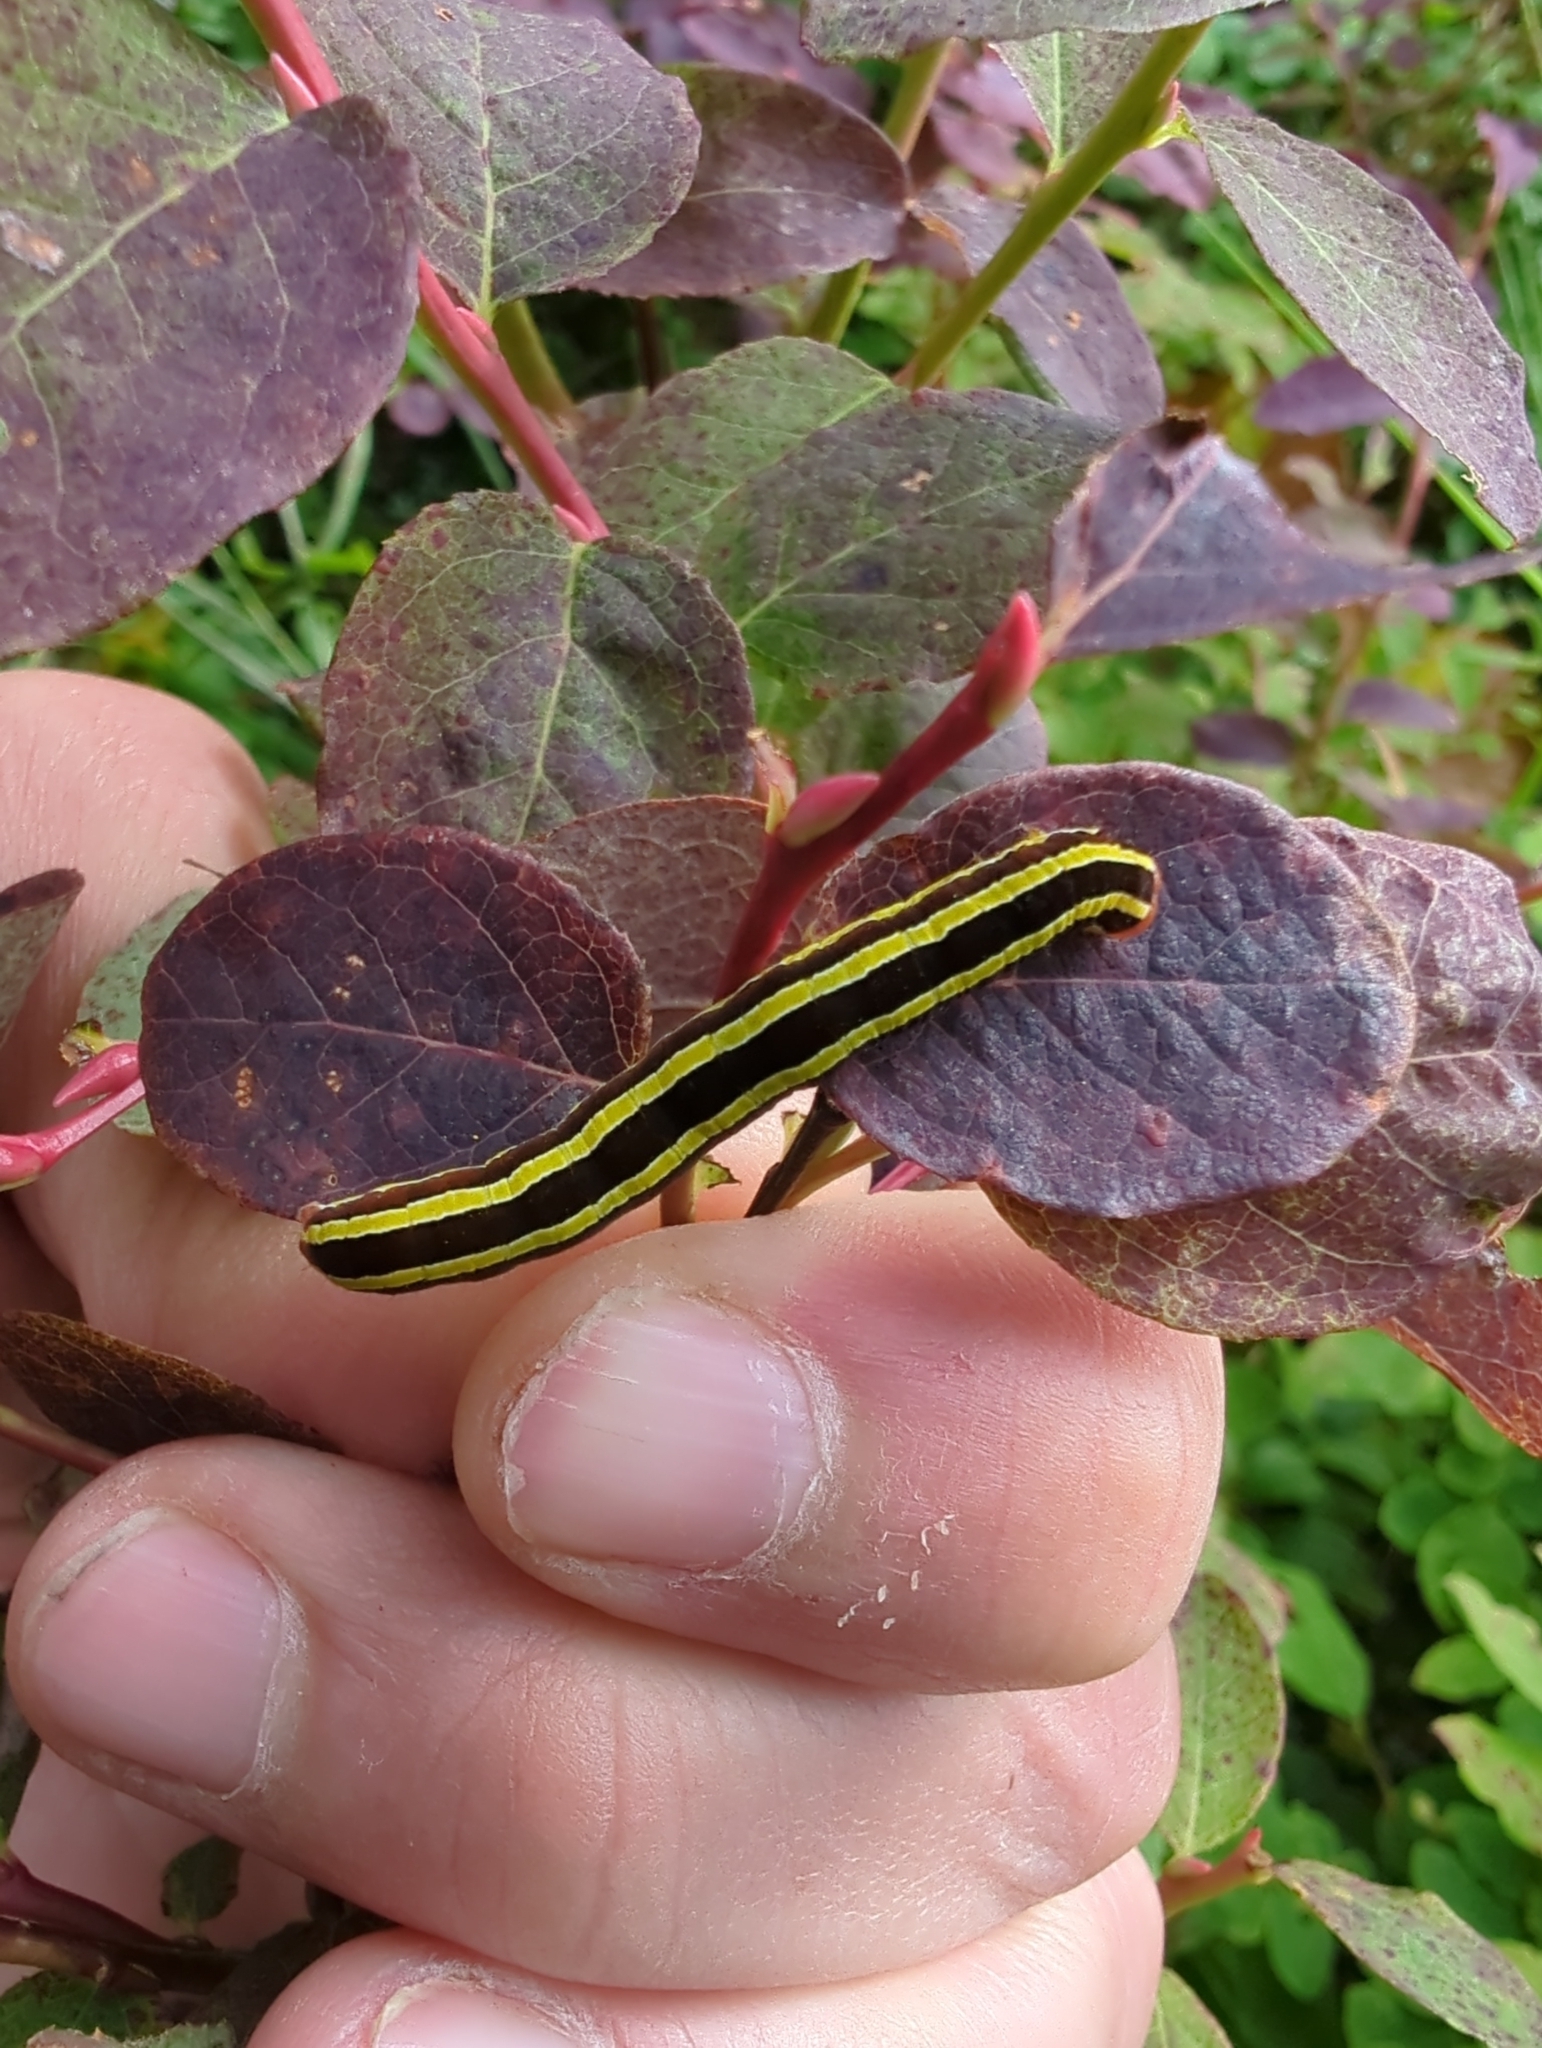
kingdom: Animalia
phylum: Arthropoda
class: Insecta
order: Lepidoptera
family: Noctuidae
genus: Melanchra
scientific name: Melanchra pulverulenta
